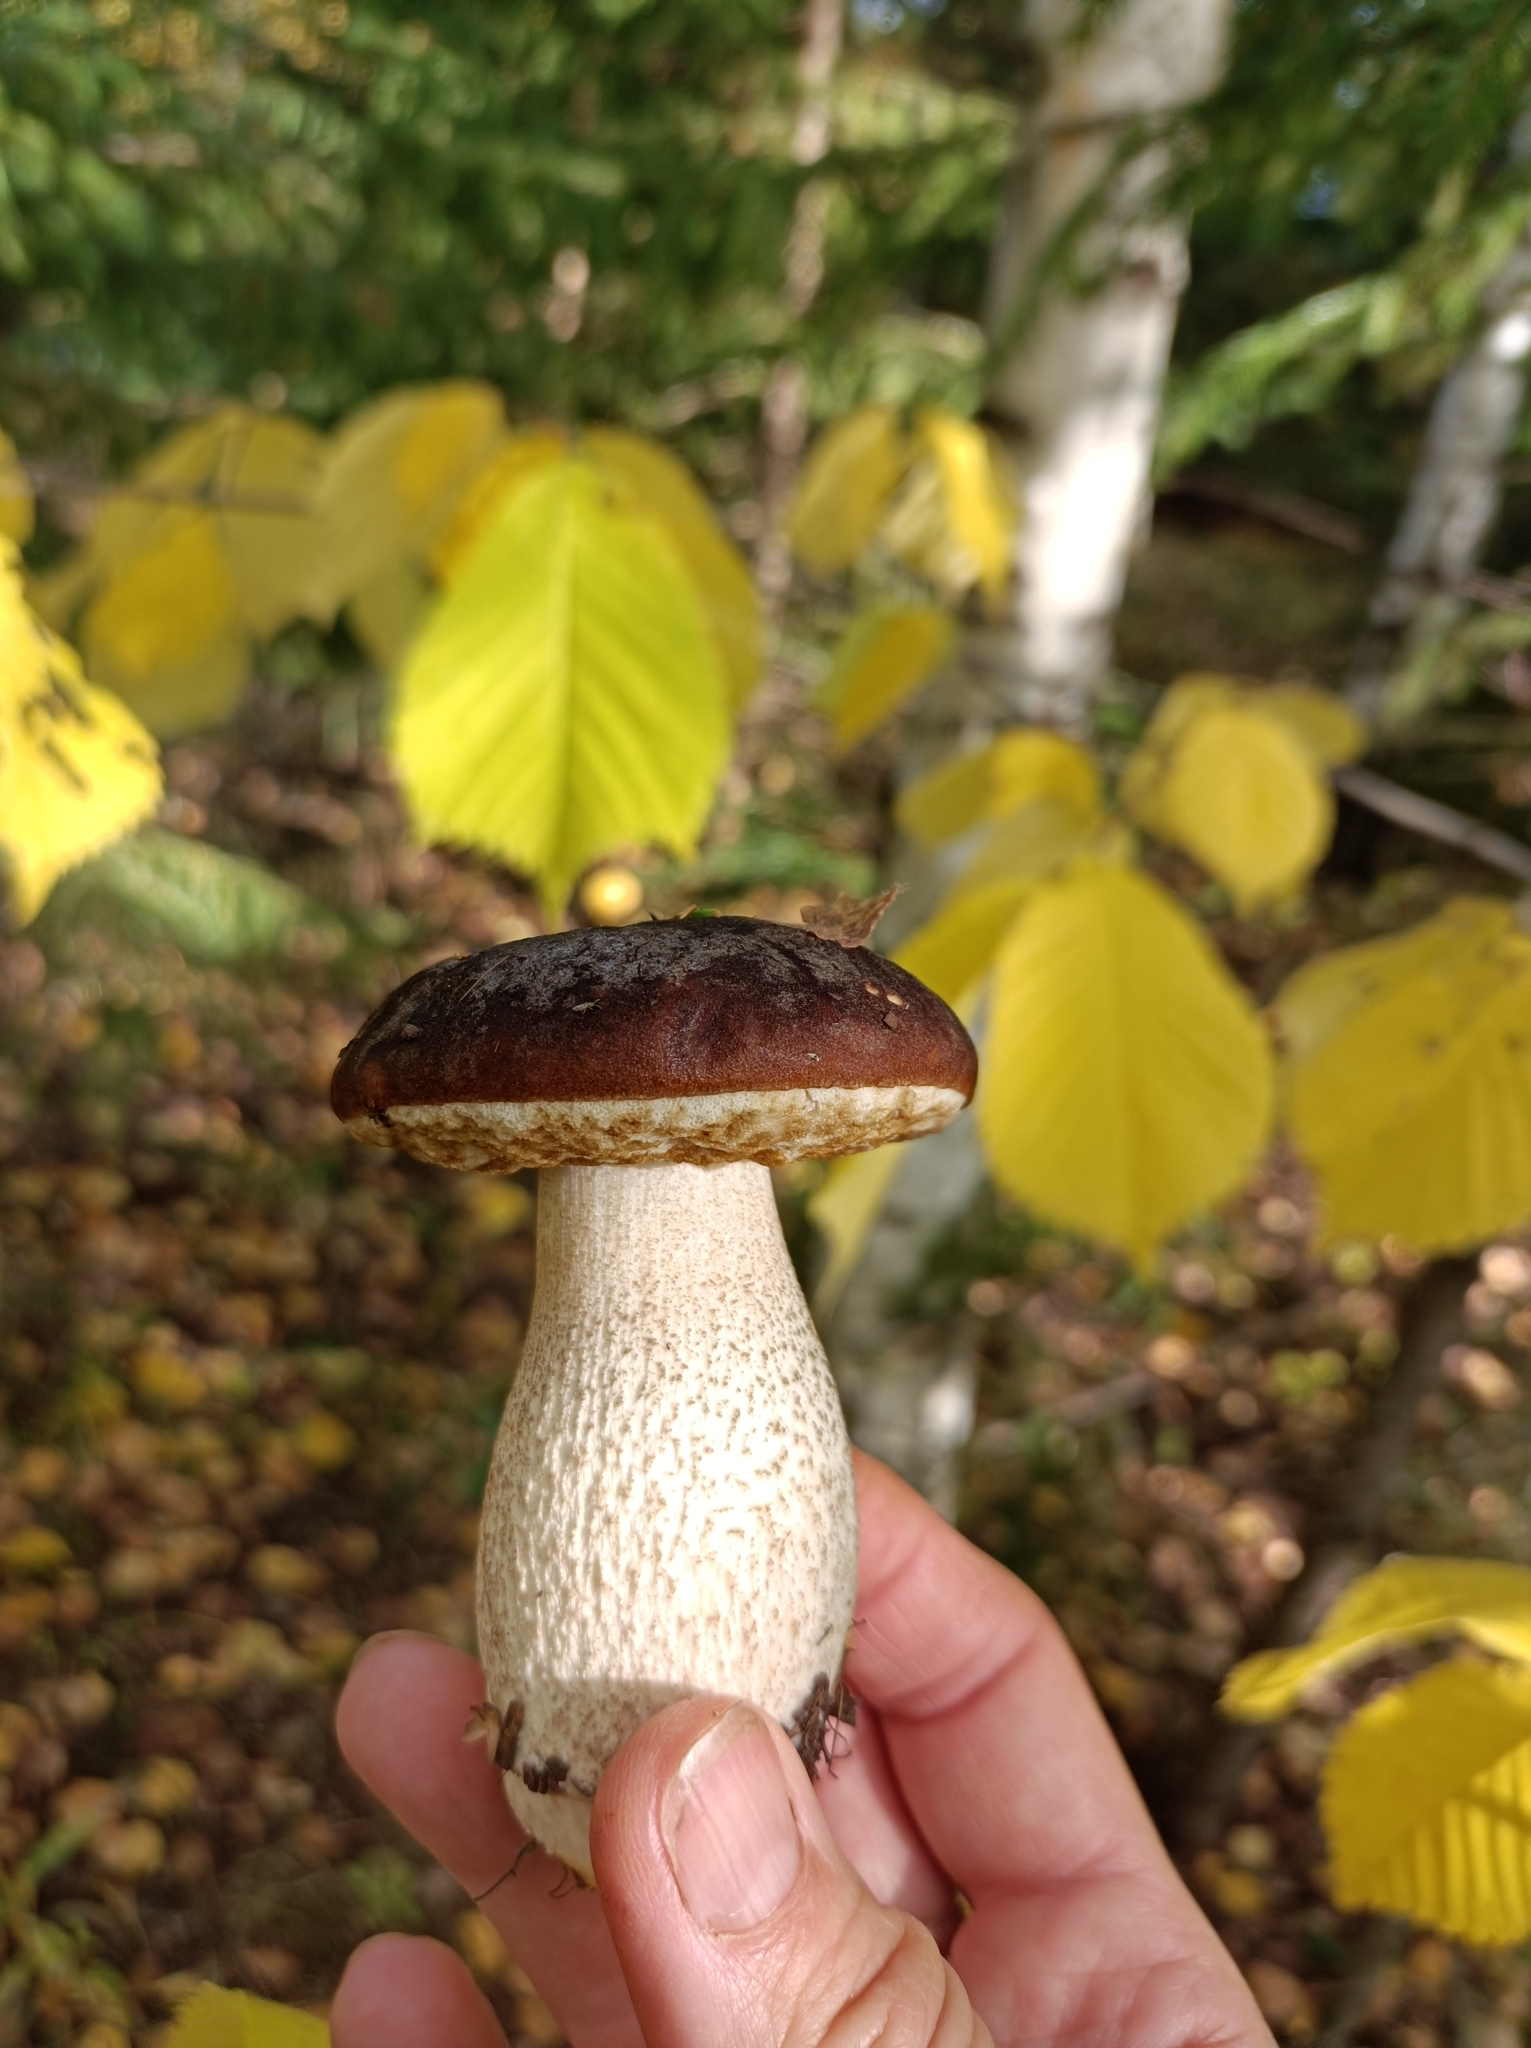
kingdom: Fungi
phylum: Basidiomycota
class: Agaricomycetes
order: Boletales
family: Boletaceae
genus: Leccinum
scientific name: Leccinum scabrum
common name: Blushing bolete
